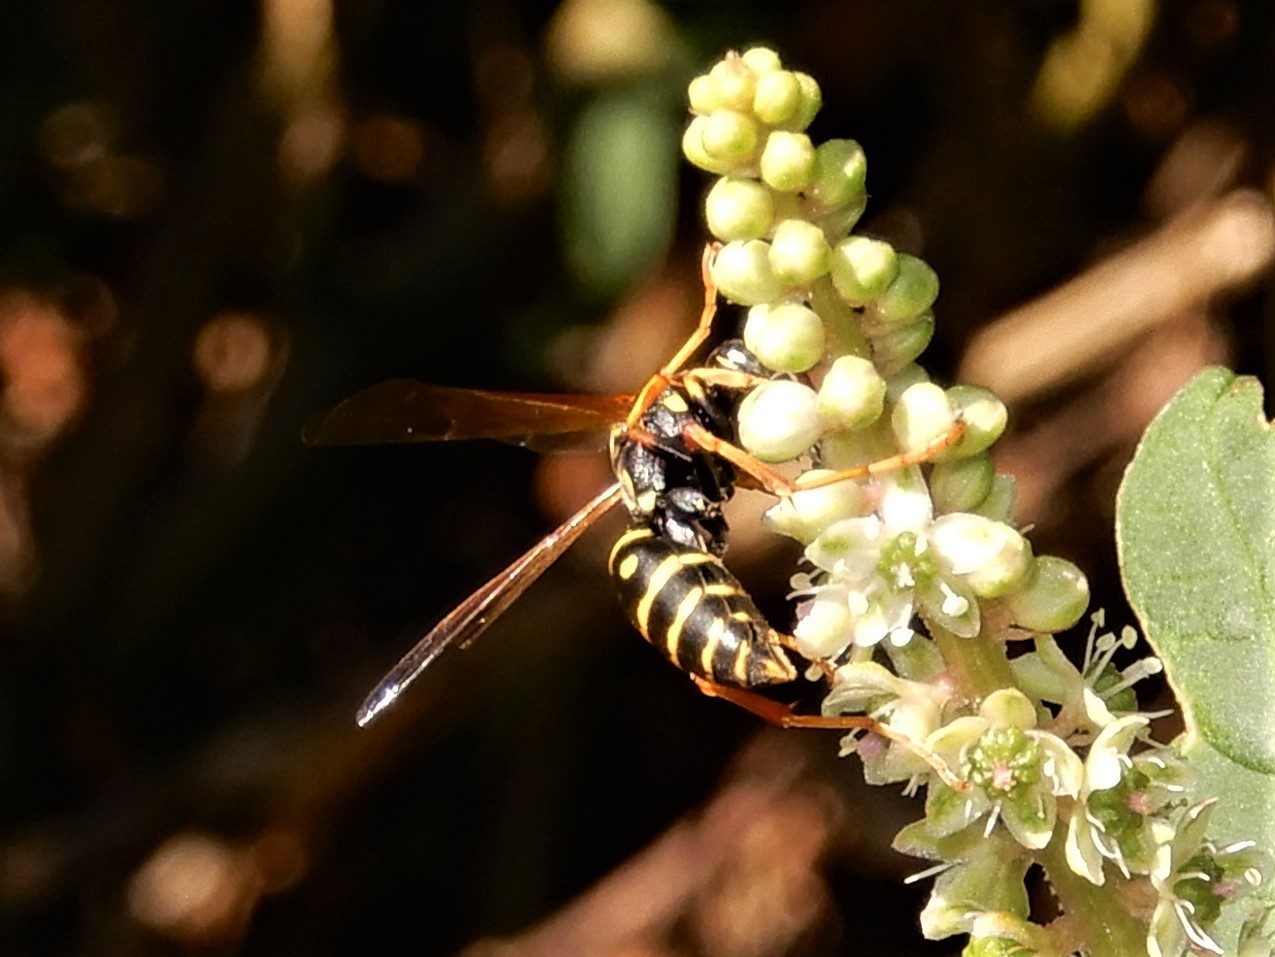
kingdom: Animalia
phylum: Arthropoda
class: Insecta
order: Hymenoptera
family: Eumenidae
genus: Polistes
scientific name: Polistes chinensis
